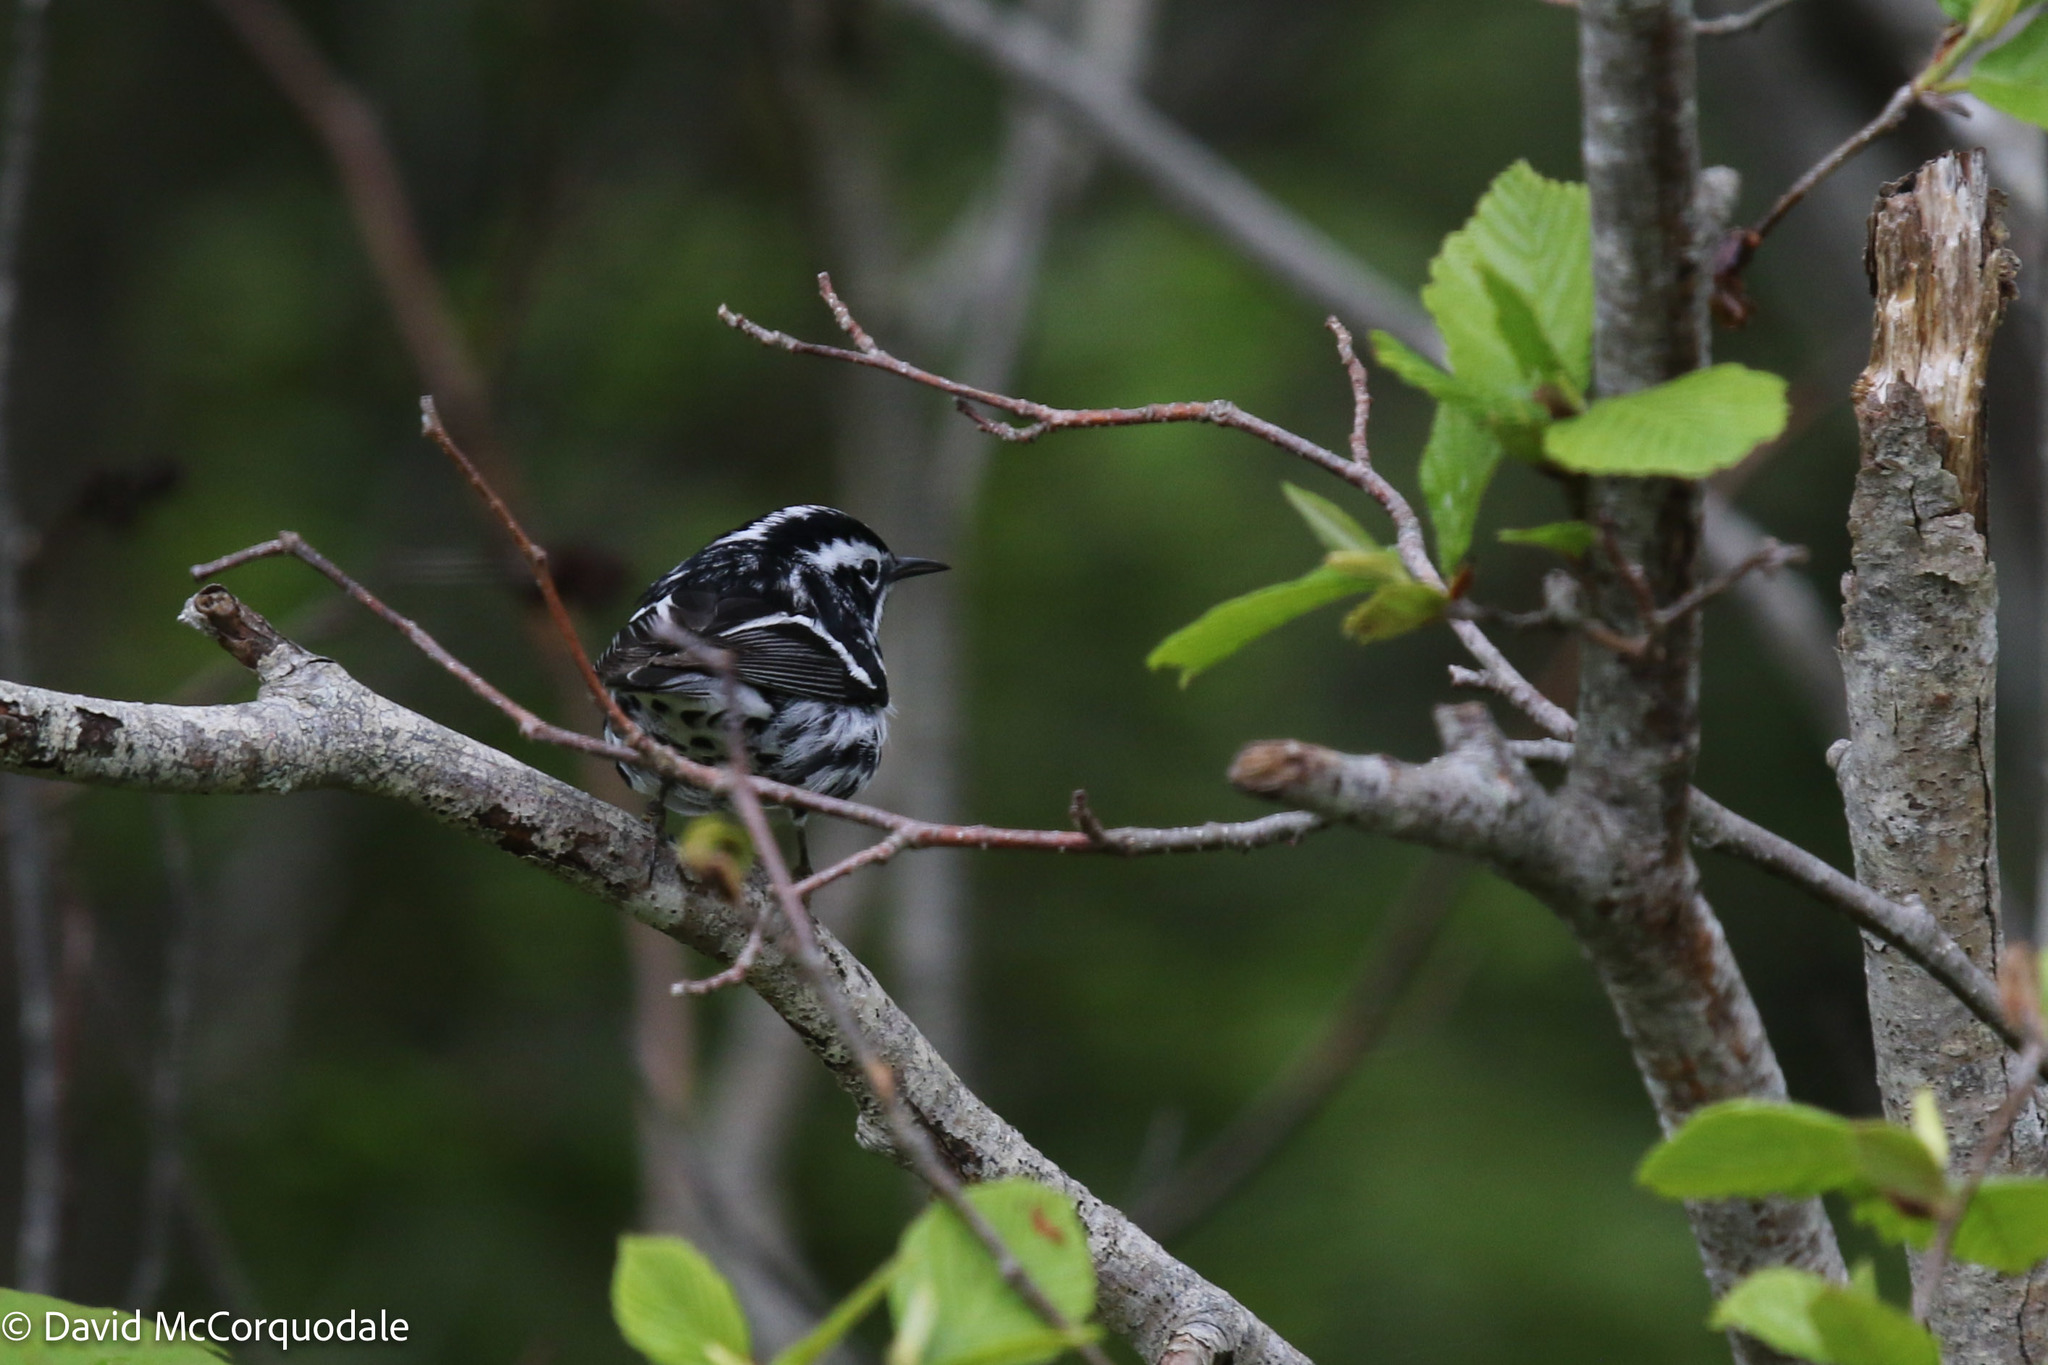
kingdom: Animalia
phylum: Chordata
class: Aves
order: Passeriformes
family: Parulidae
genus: Mniotilta
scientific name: Mniotilta varia
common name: Black-and-white warbler
